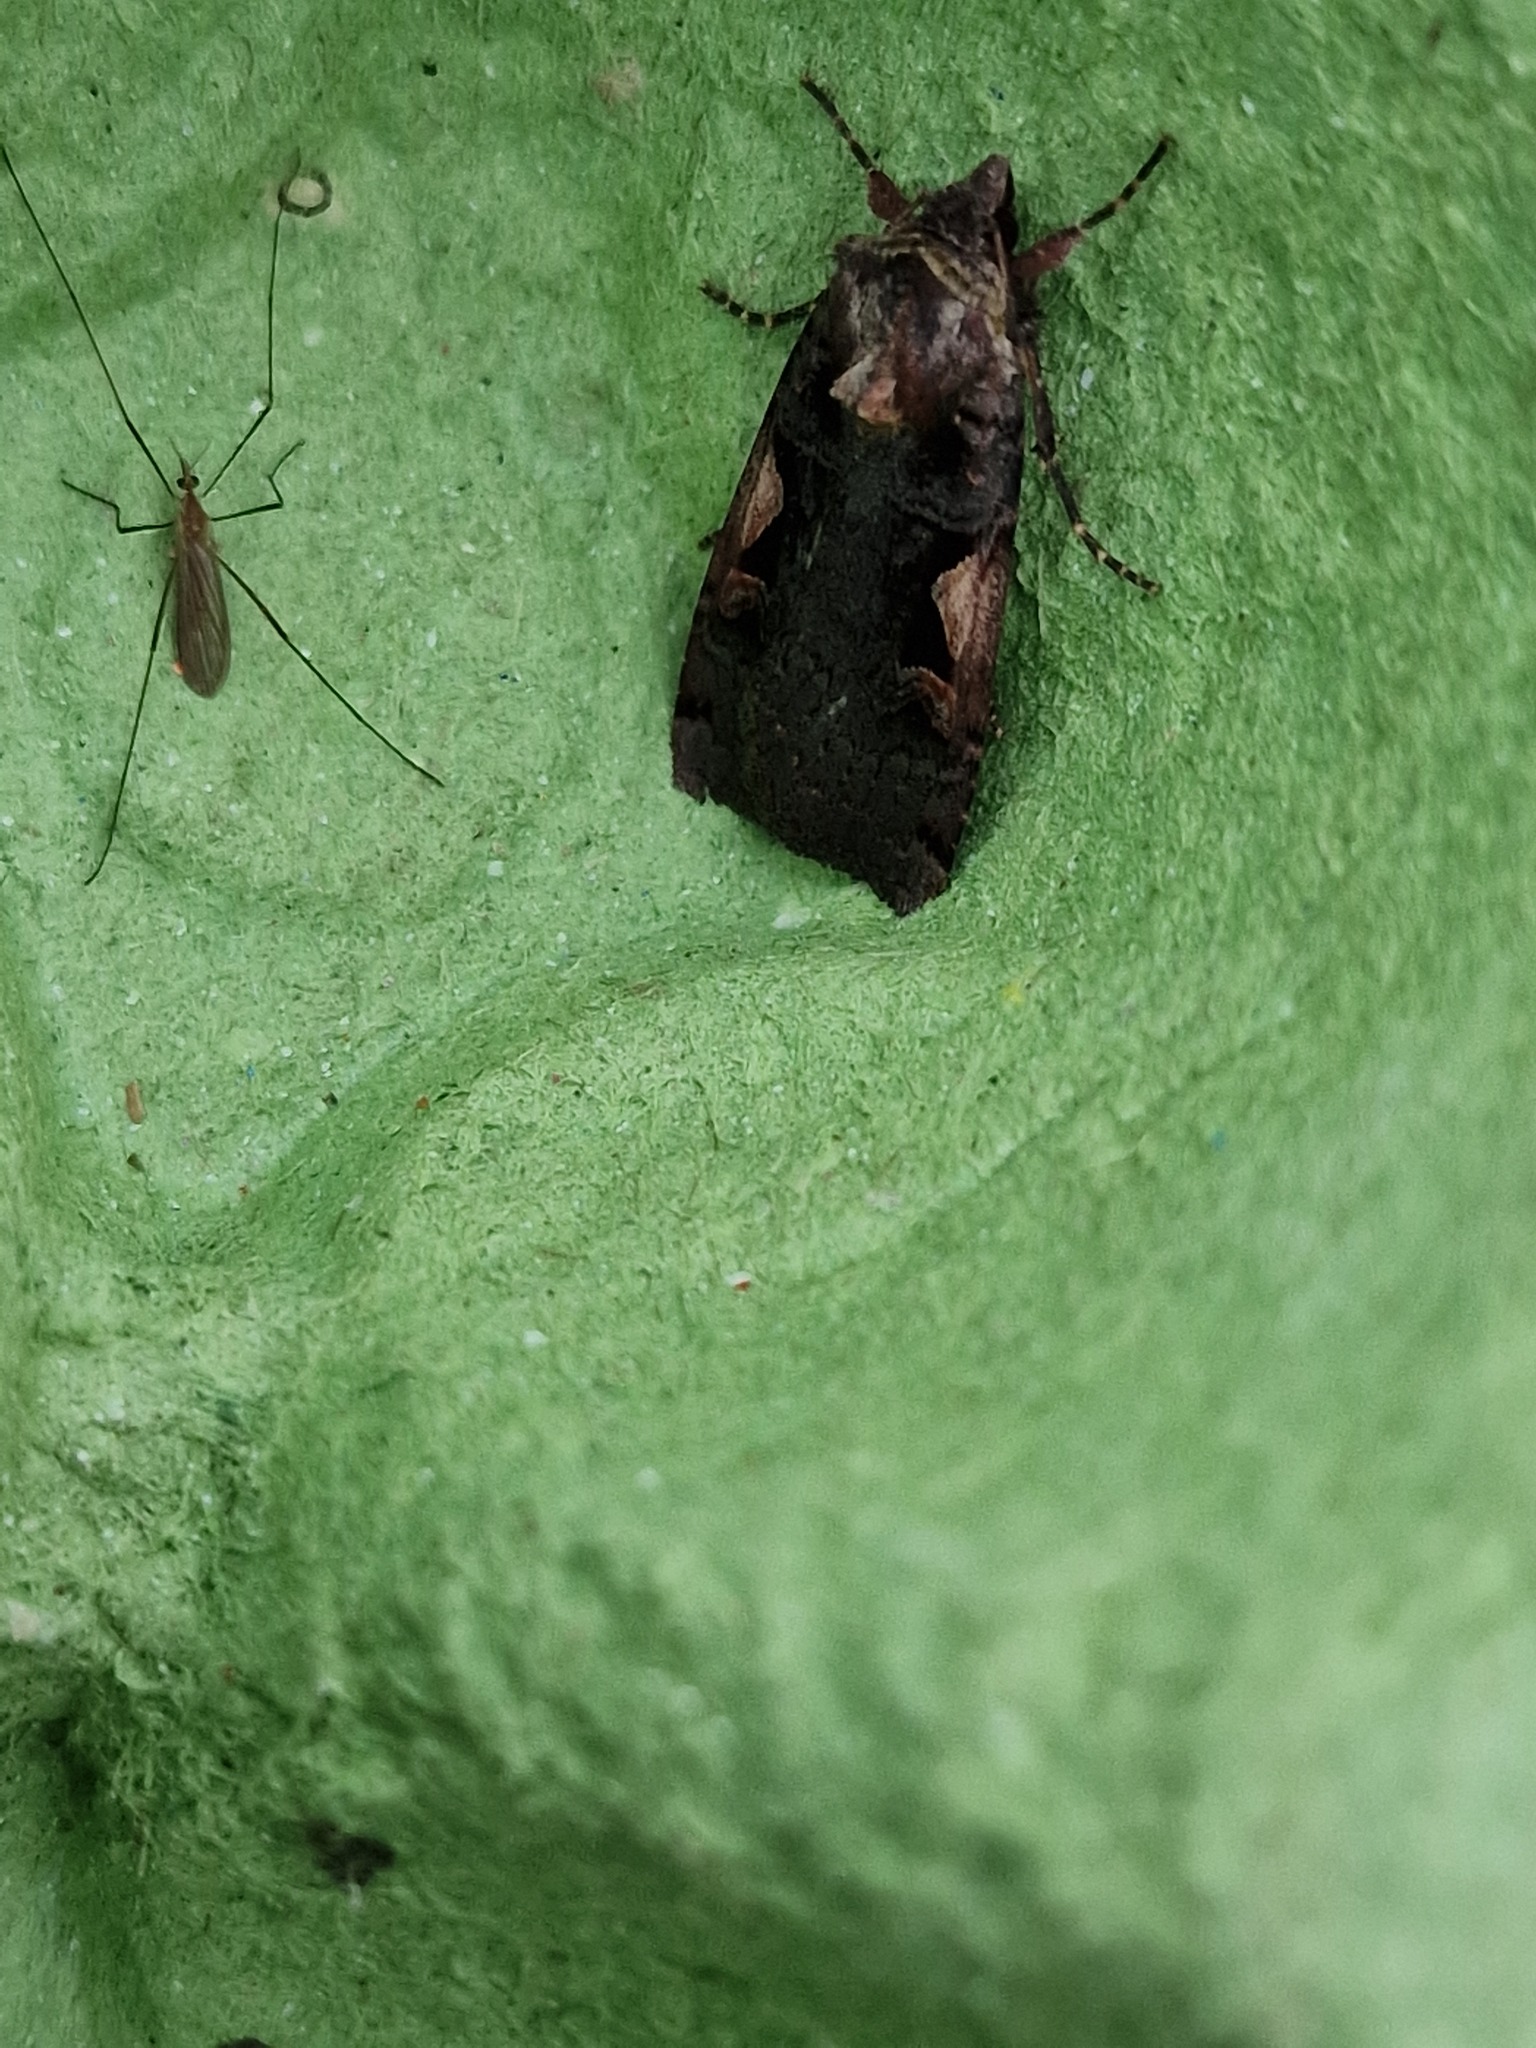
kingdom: Animalia
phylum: Arthropoda
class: Insecta
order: Lepidoptera
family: Noctuidae
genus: Xestia
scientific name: Xestia c-nigrum
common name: Setaceous hebrew character
